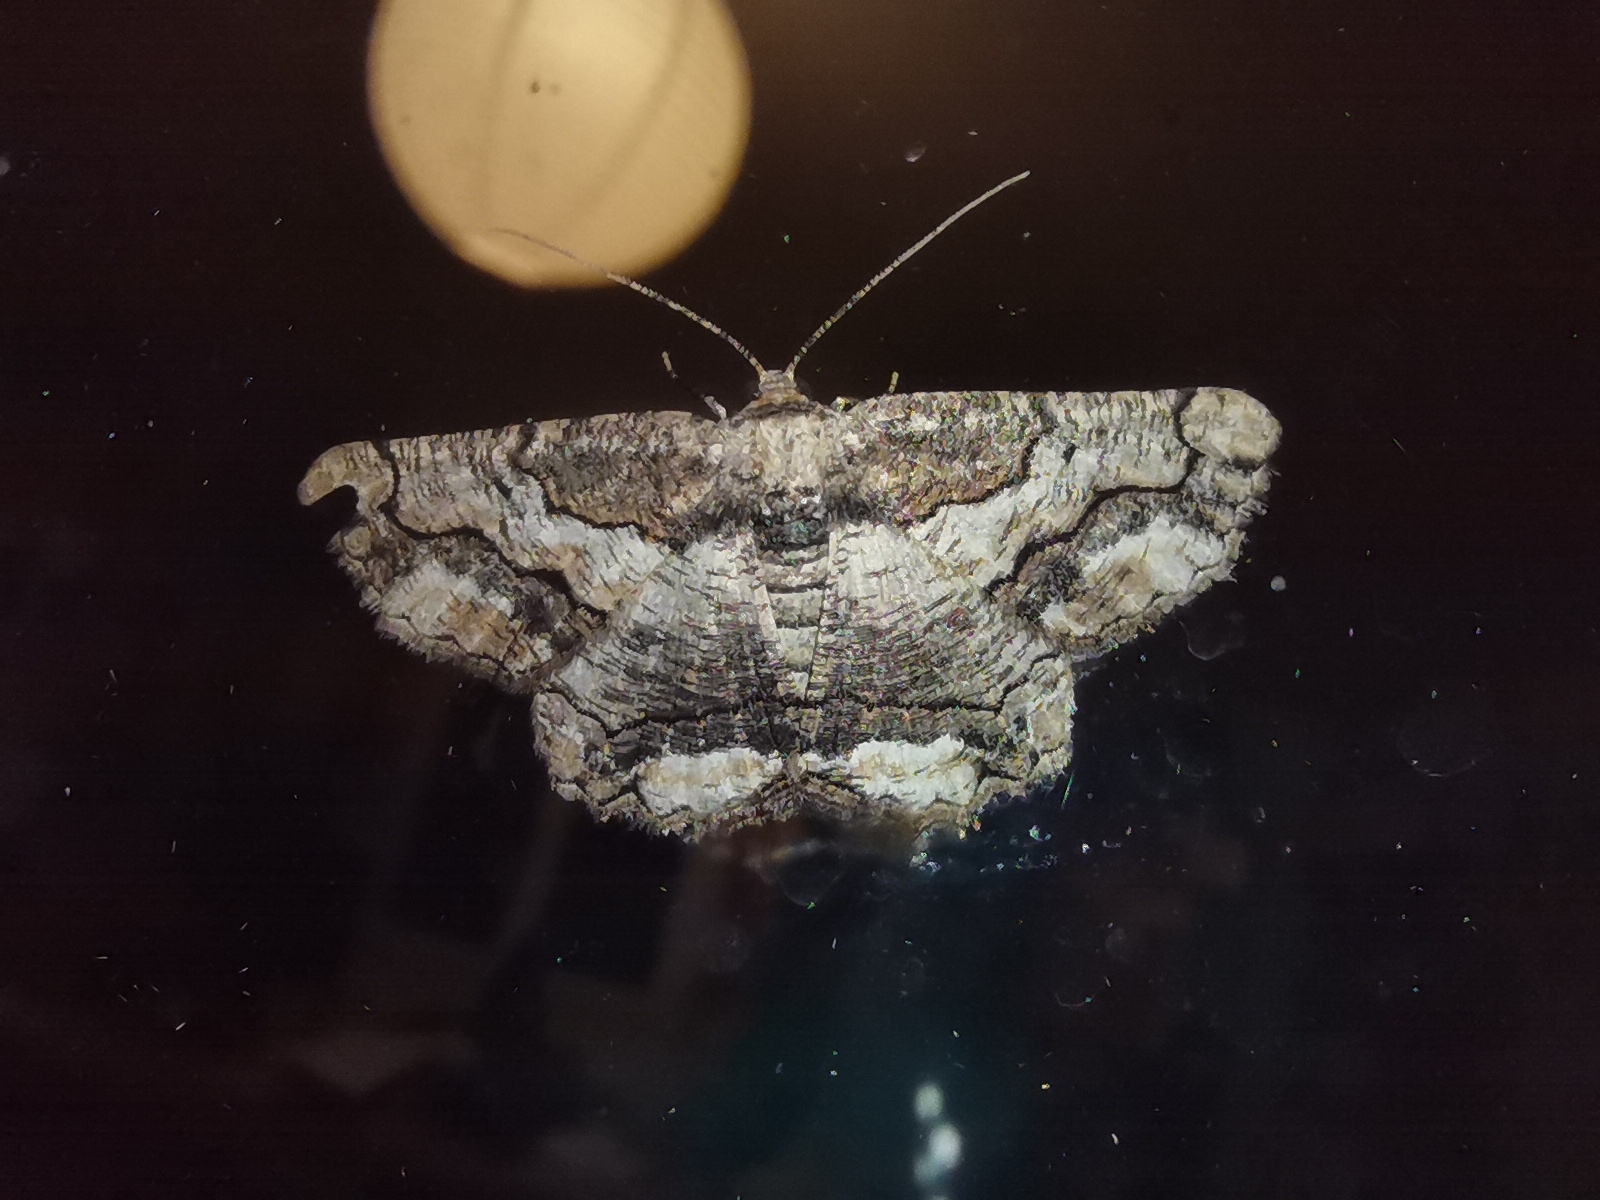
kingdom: Animalia
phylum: Arthropoda
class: Insecta
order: Lepidoptera
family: Geometridae
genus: Menophra
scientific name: Menophra japygiaria
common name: Brassy waved umber
